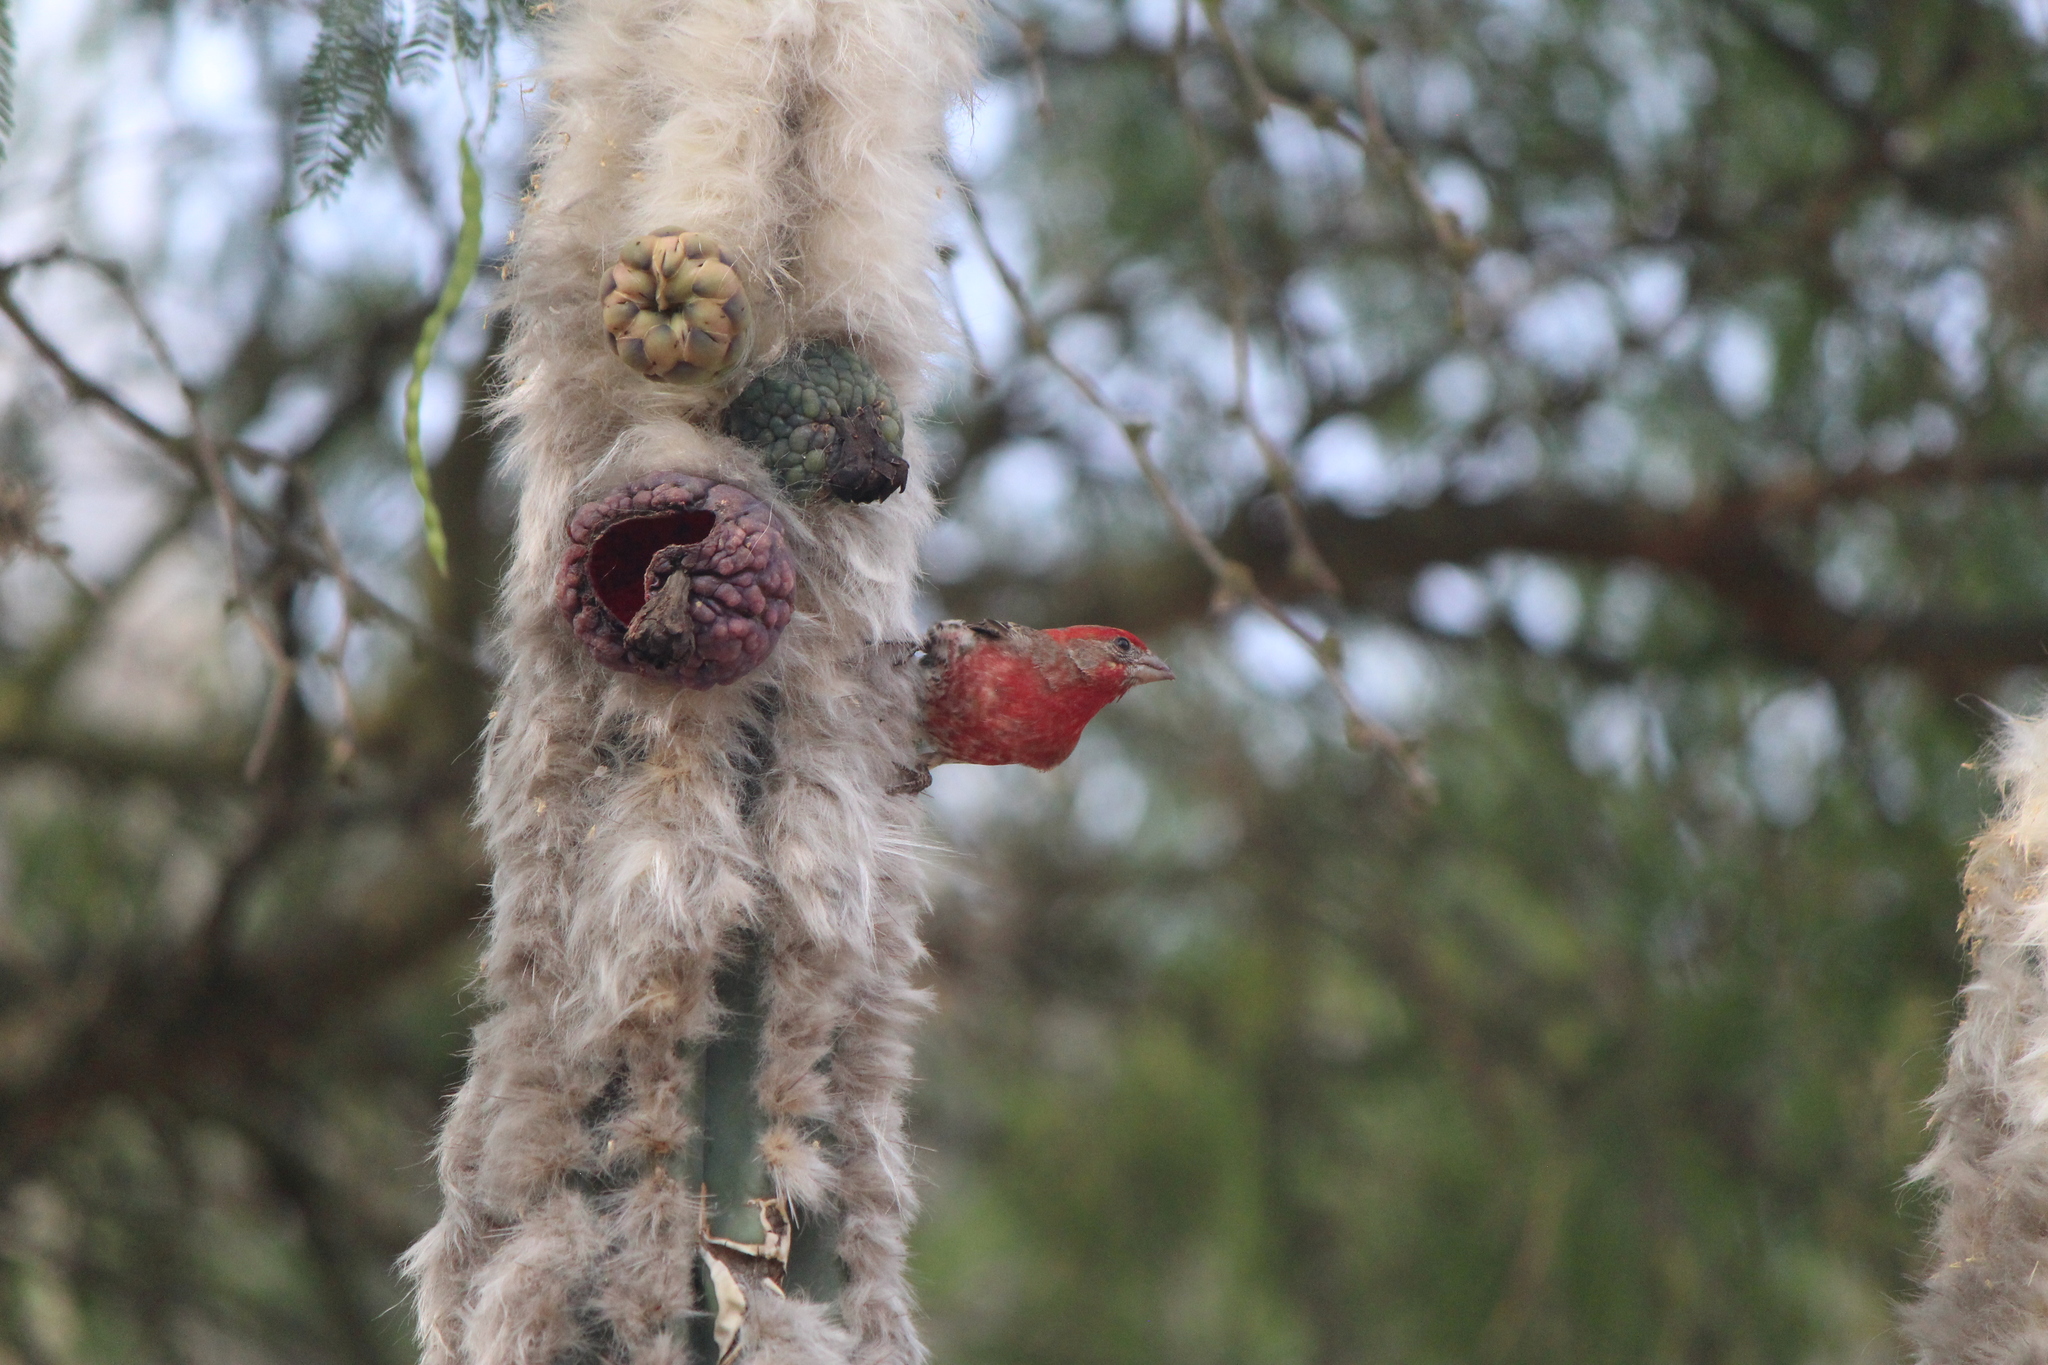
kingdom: Animalia
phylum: Chordata
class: Aves
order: Passeriformes
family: Fringillidae
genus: Haemorhous
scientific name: Haemorhous mexicanus
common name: House finch
